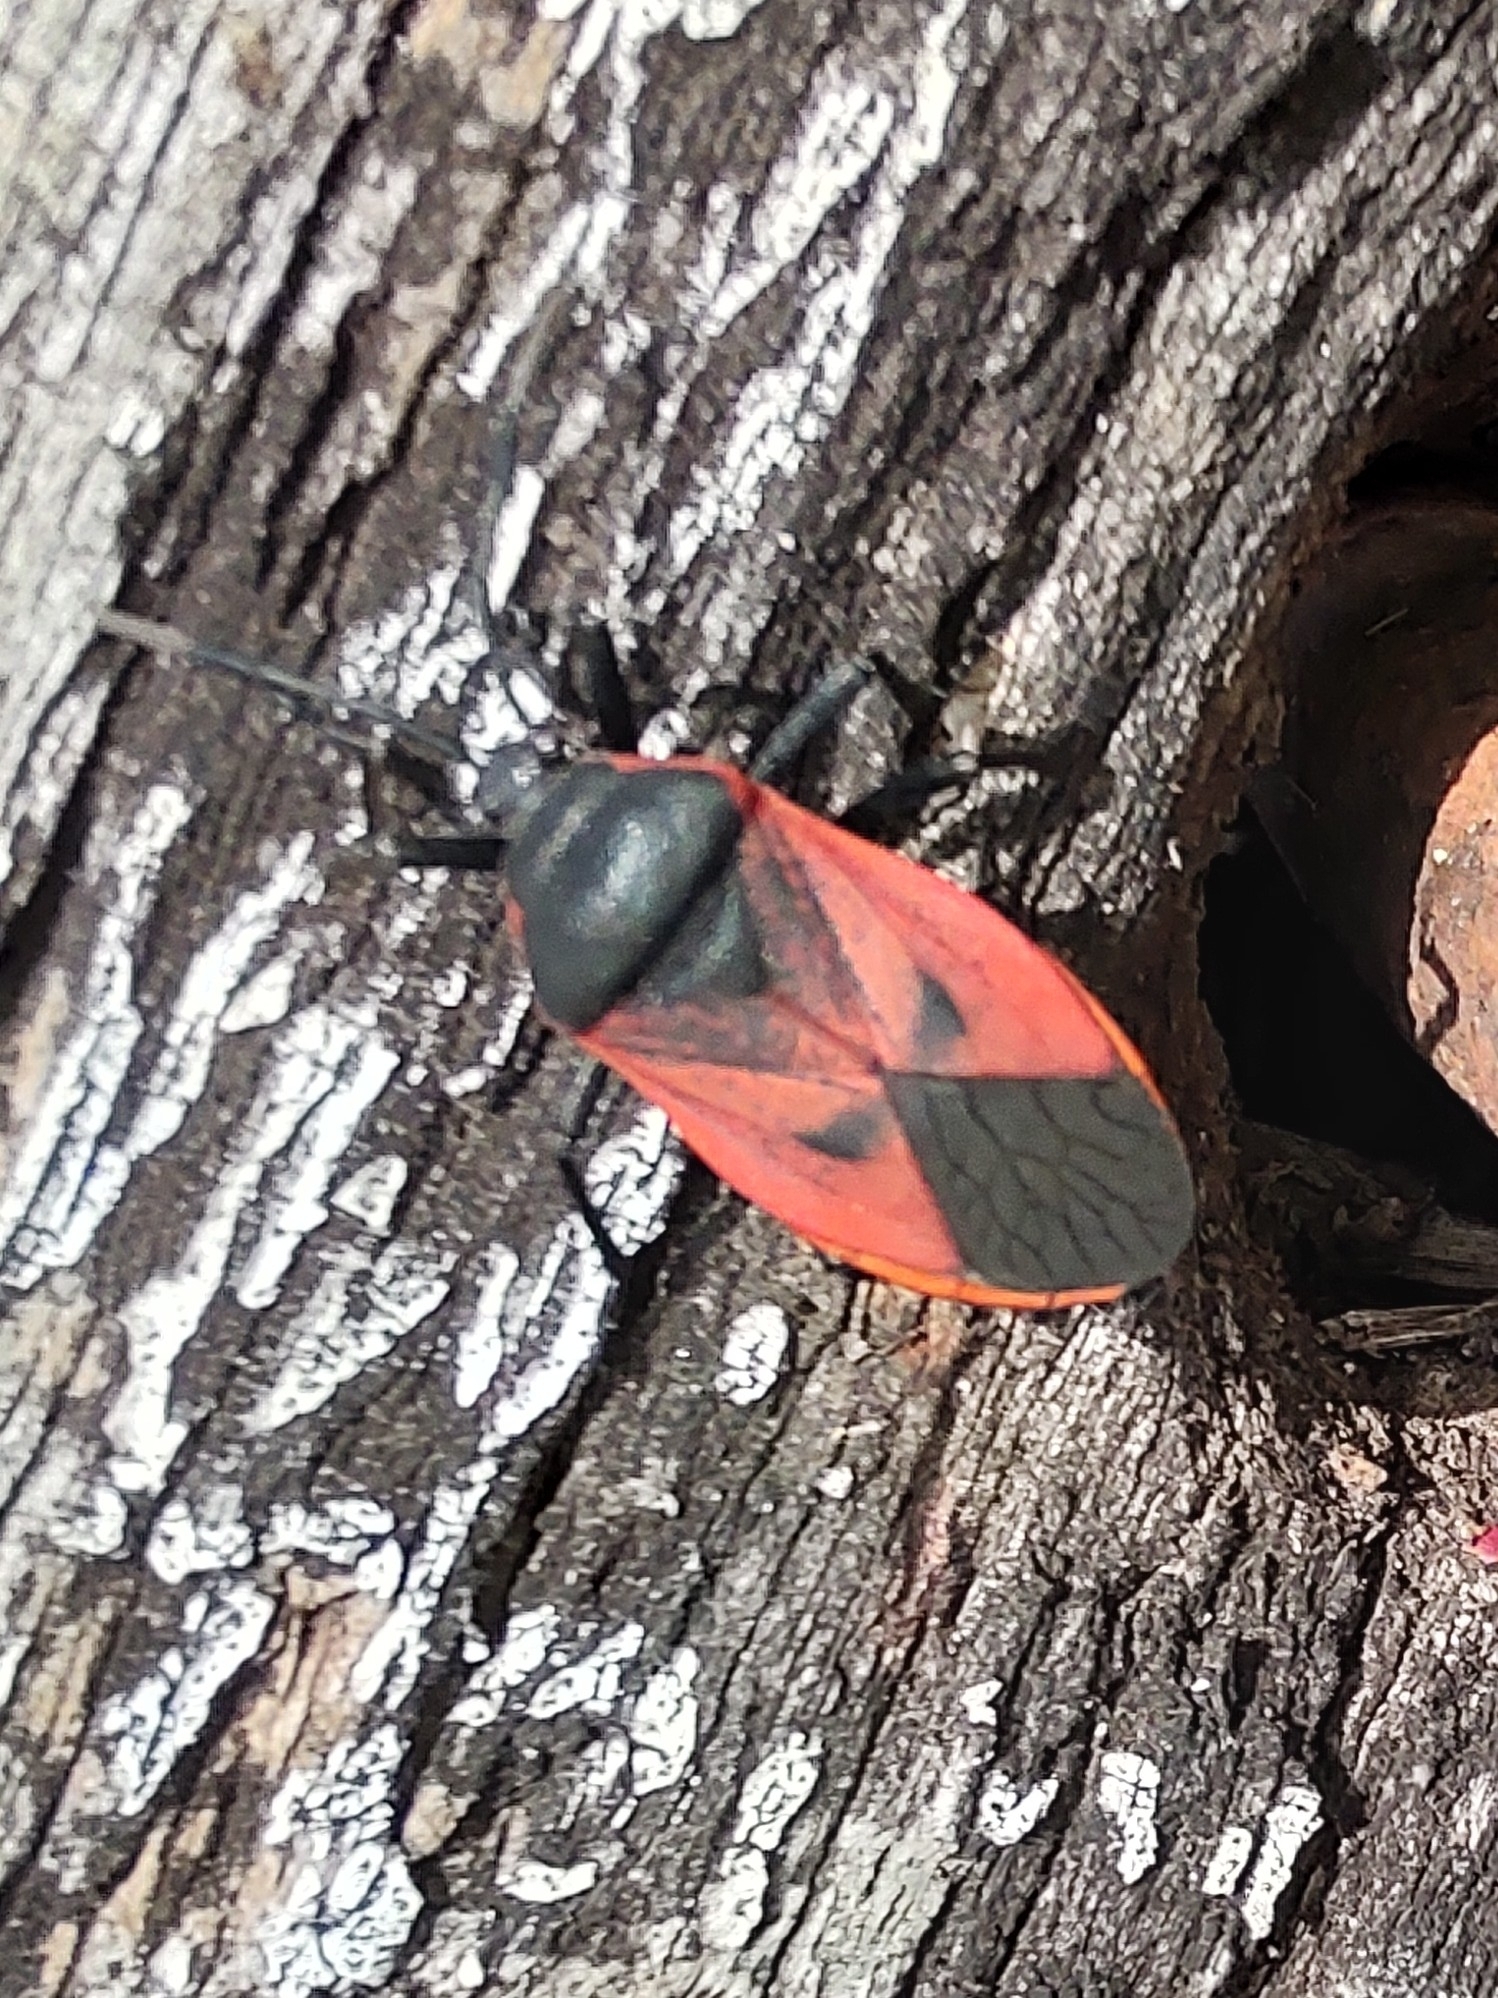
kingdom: Animalia
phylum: Arthropoda
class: Insecta
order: Hemiptera
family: Largidae
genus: Largus
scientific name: Largus rufipennis
